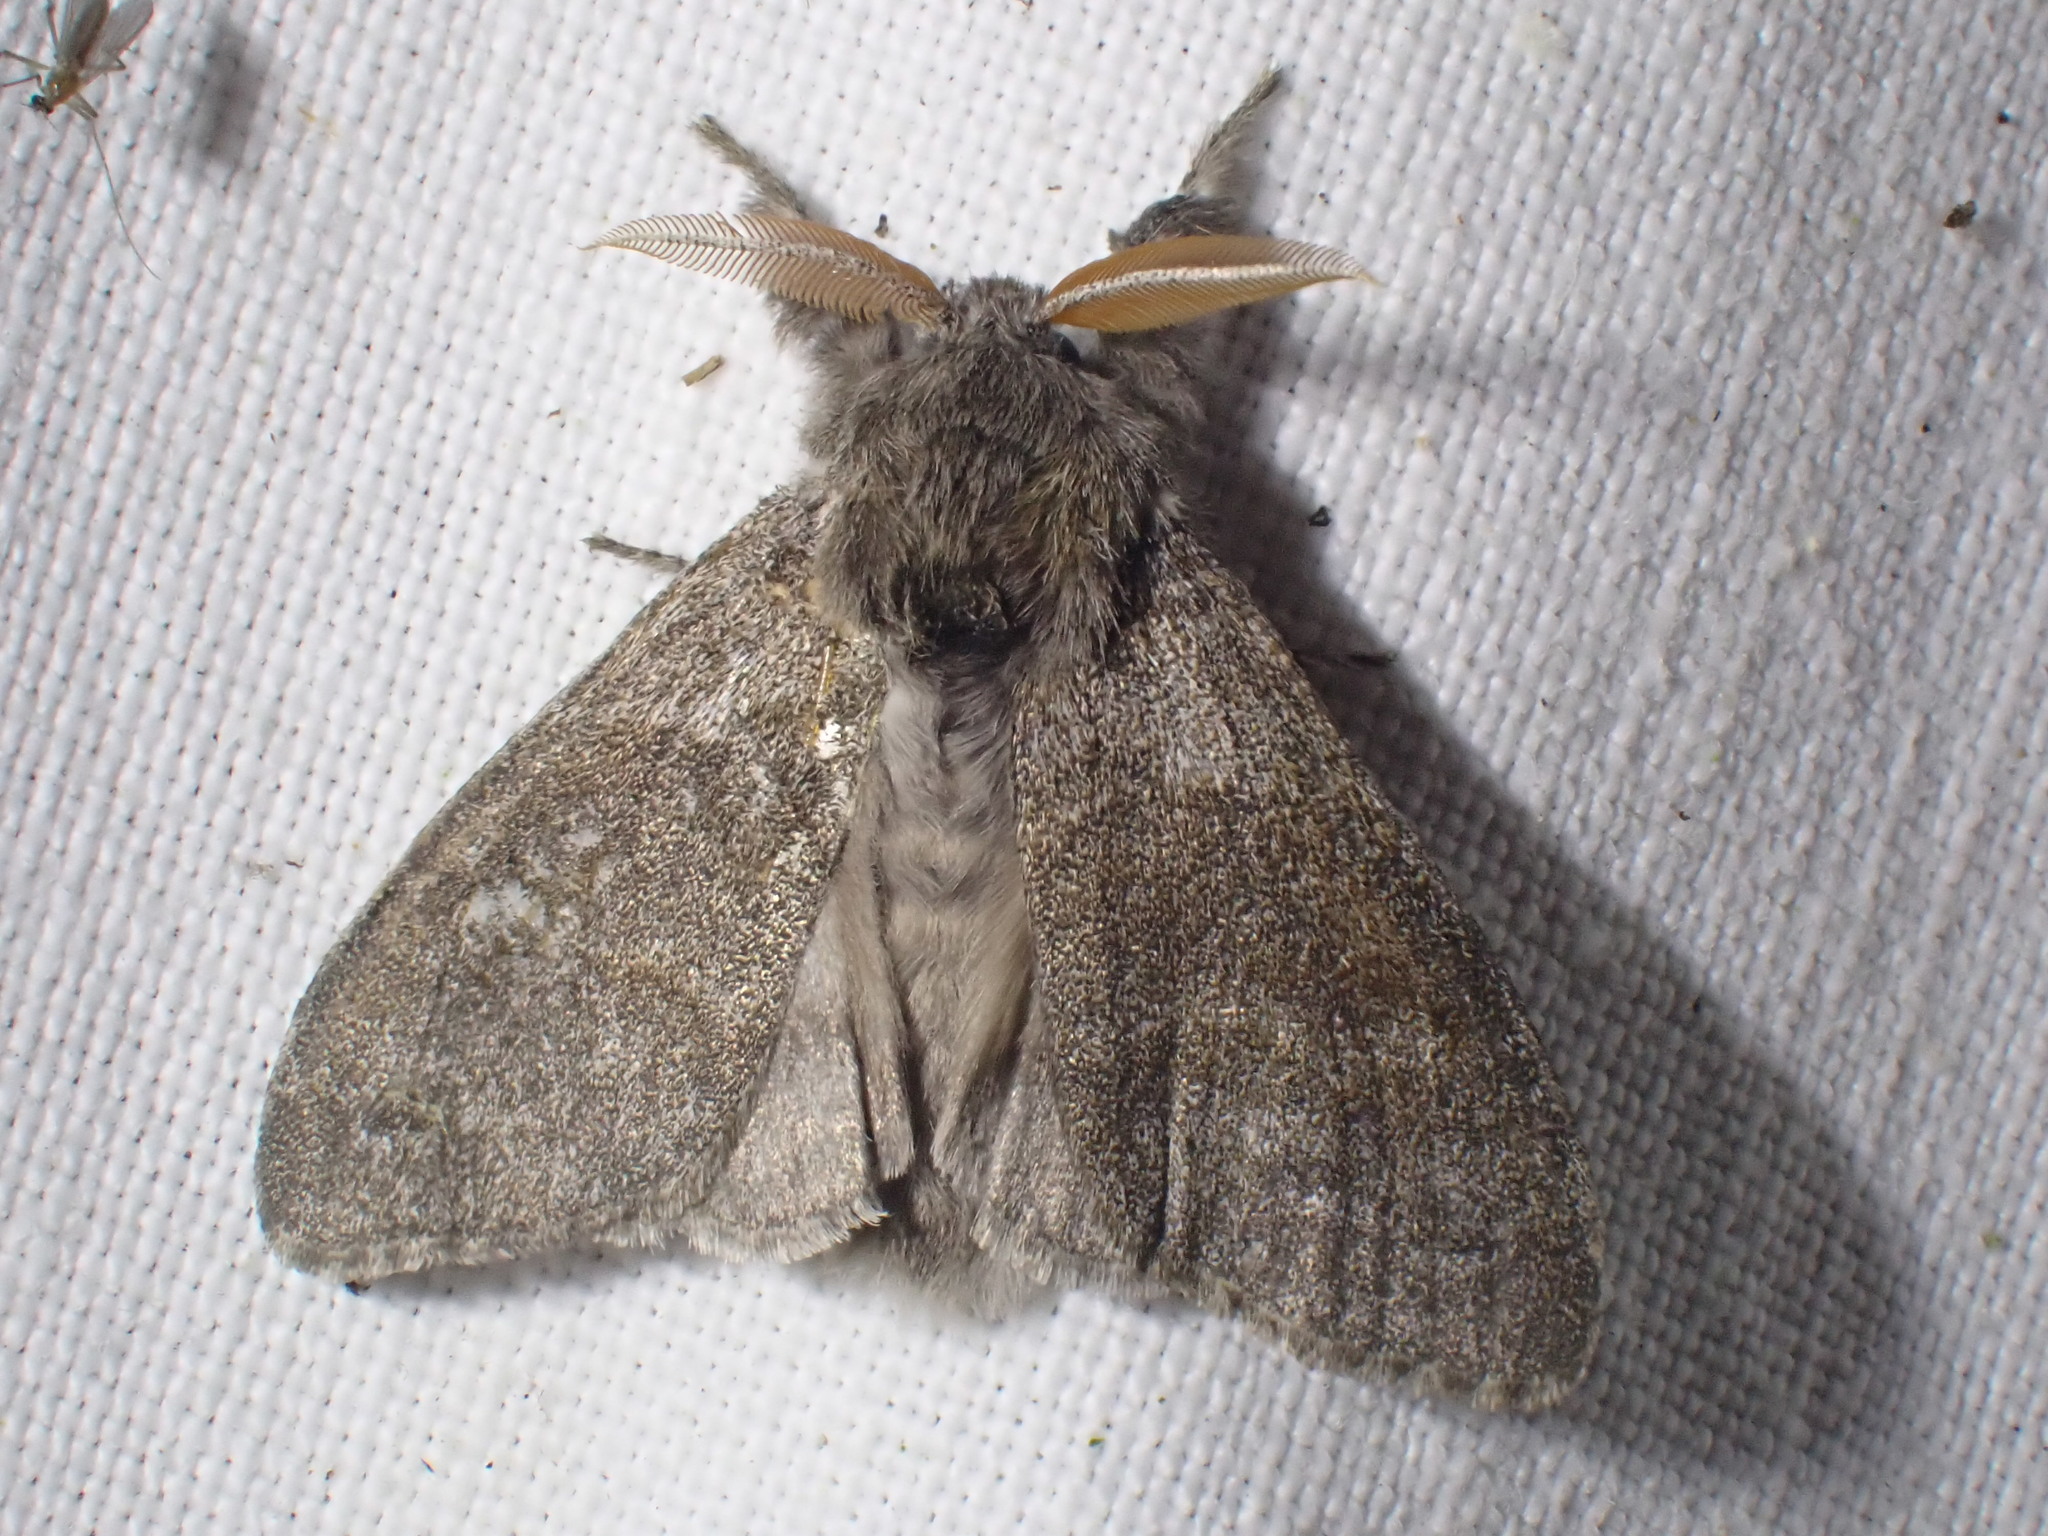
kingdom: Animalia
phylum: Arthropoda
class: Insecta
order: Lepidoptera
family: Erebidae
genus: Calliteara
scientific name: Calliteara pudibunda
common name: Pale tussock
